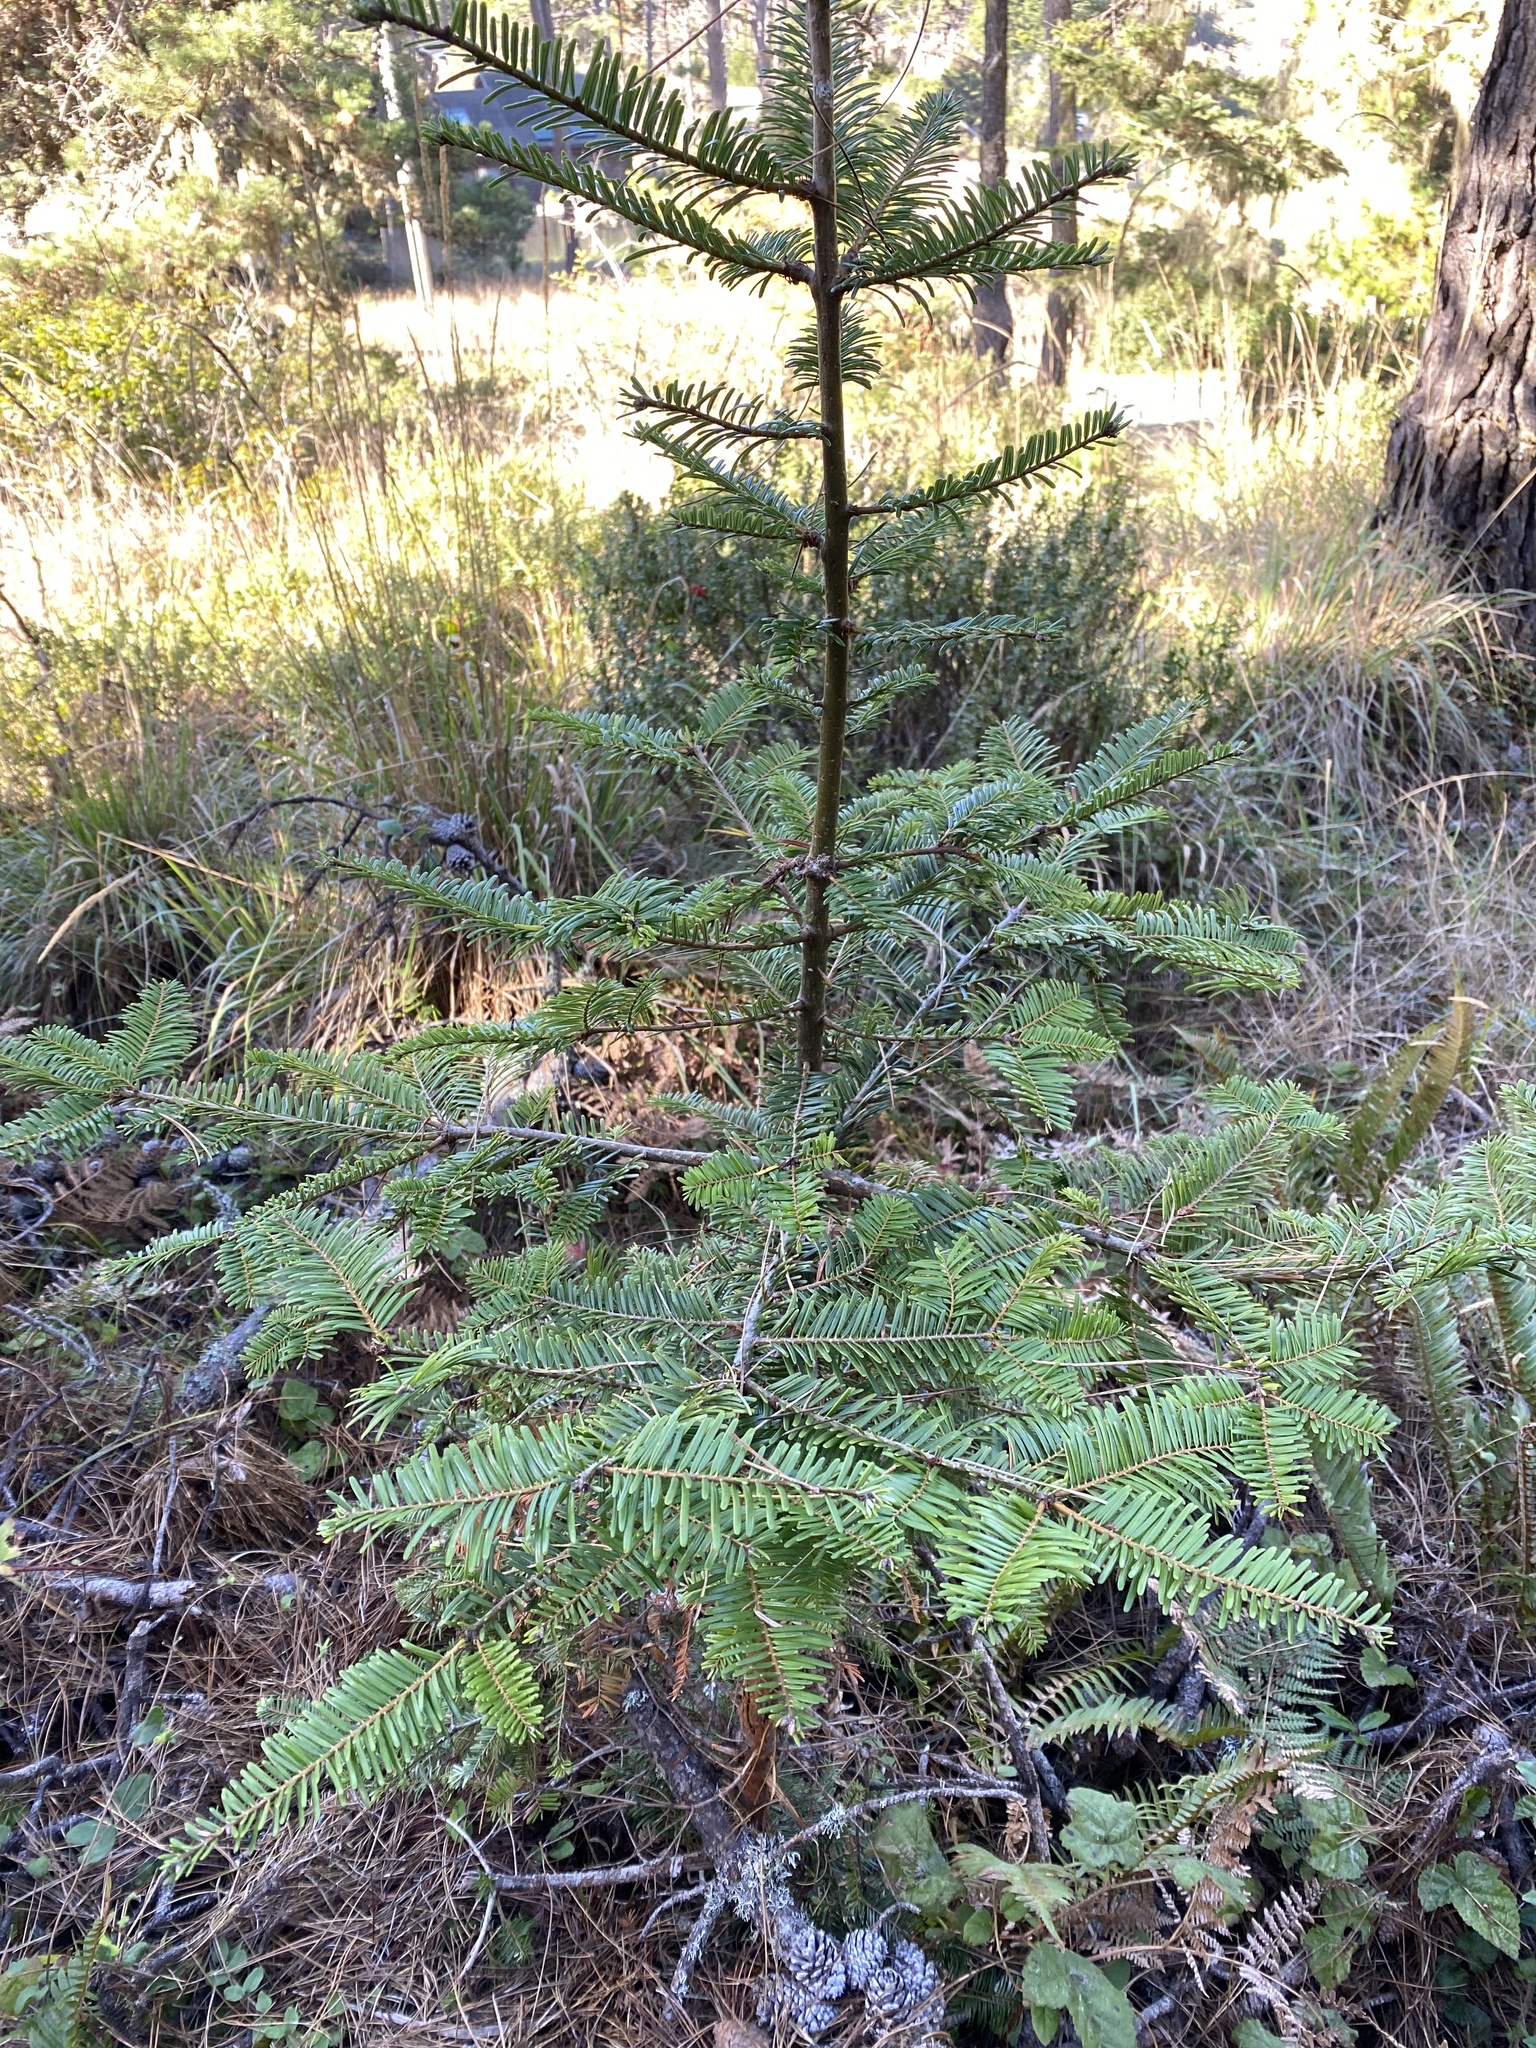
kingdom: Plantae
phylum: Tracheophyta
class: Pinopsida
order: Pinales
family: Cupressaceae
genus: Sequoia
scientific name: Sequoia sempervirens
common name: Coast redwood
